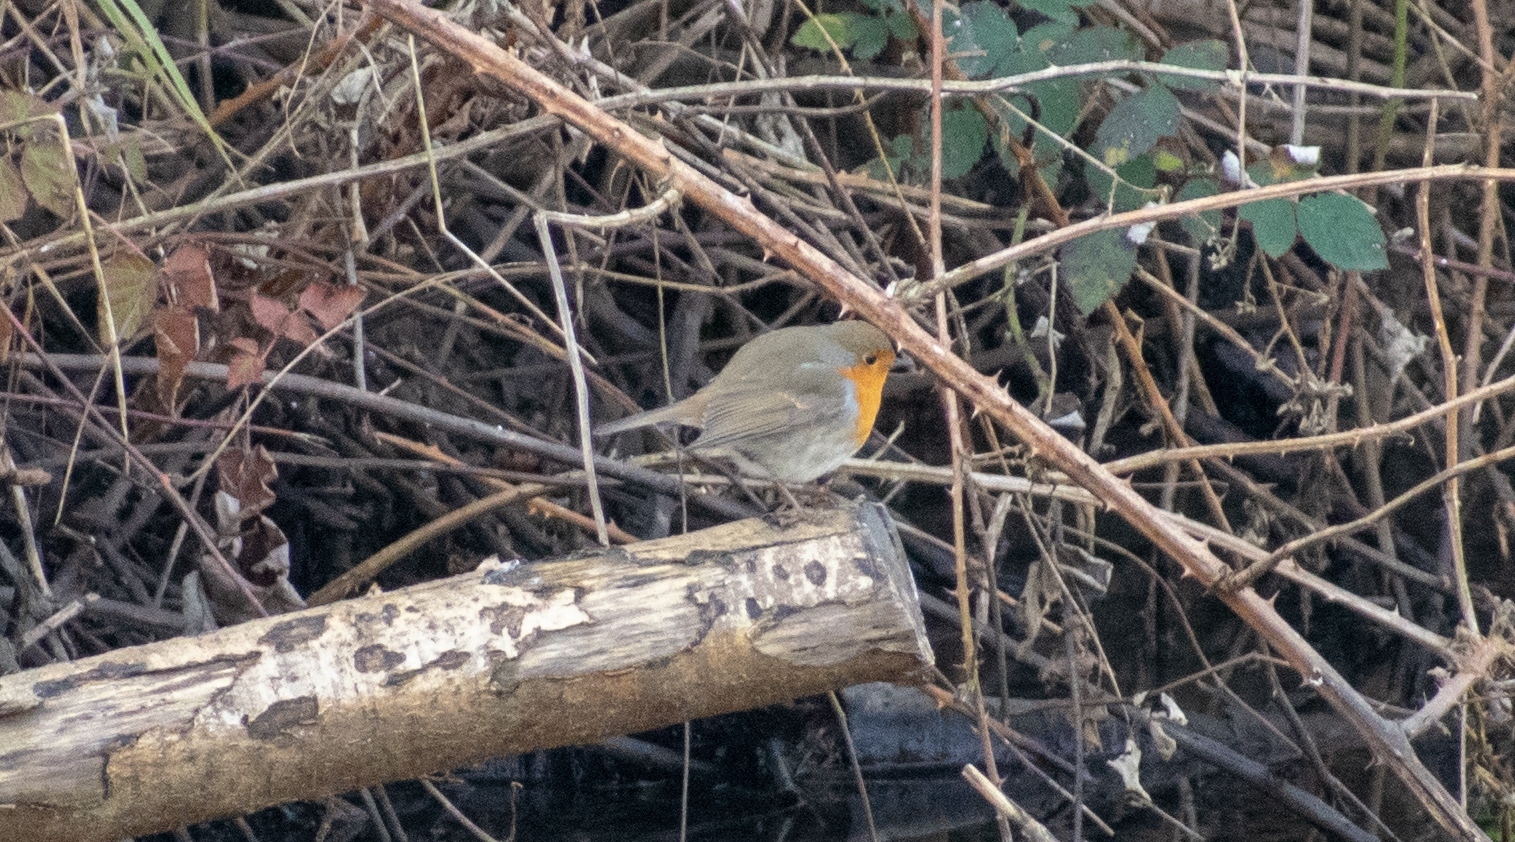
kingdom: Animalia
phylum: Chordata
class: Aves
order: Passeriformes
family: Muscicapidae
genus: Erithacus
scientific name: Erithacus rubecula
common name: European robin
